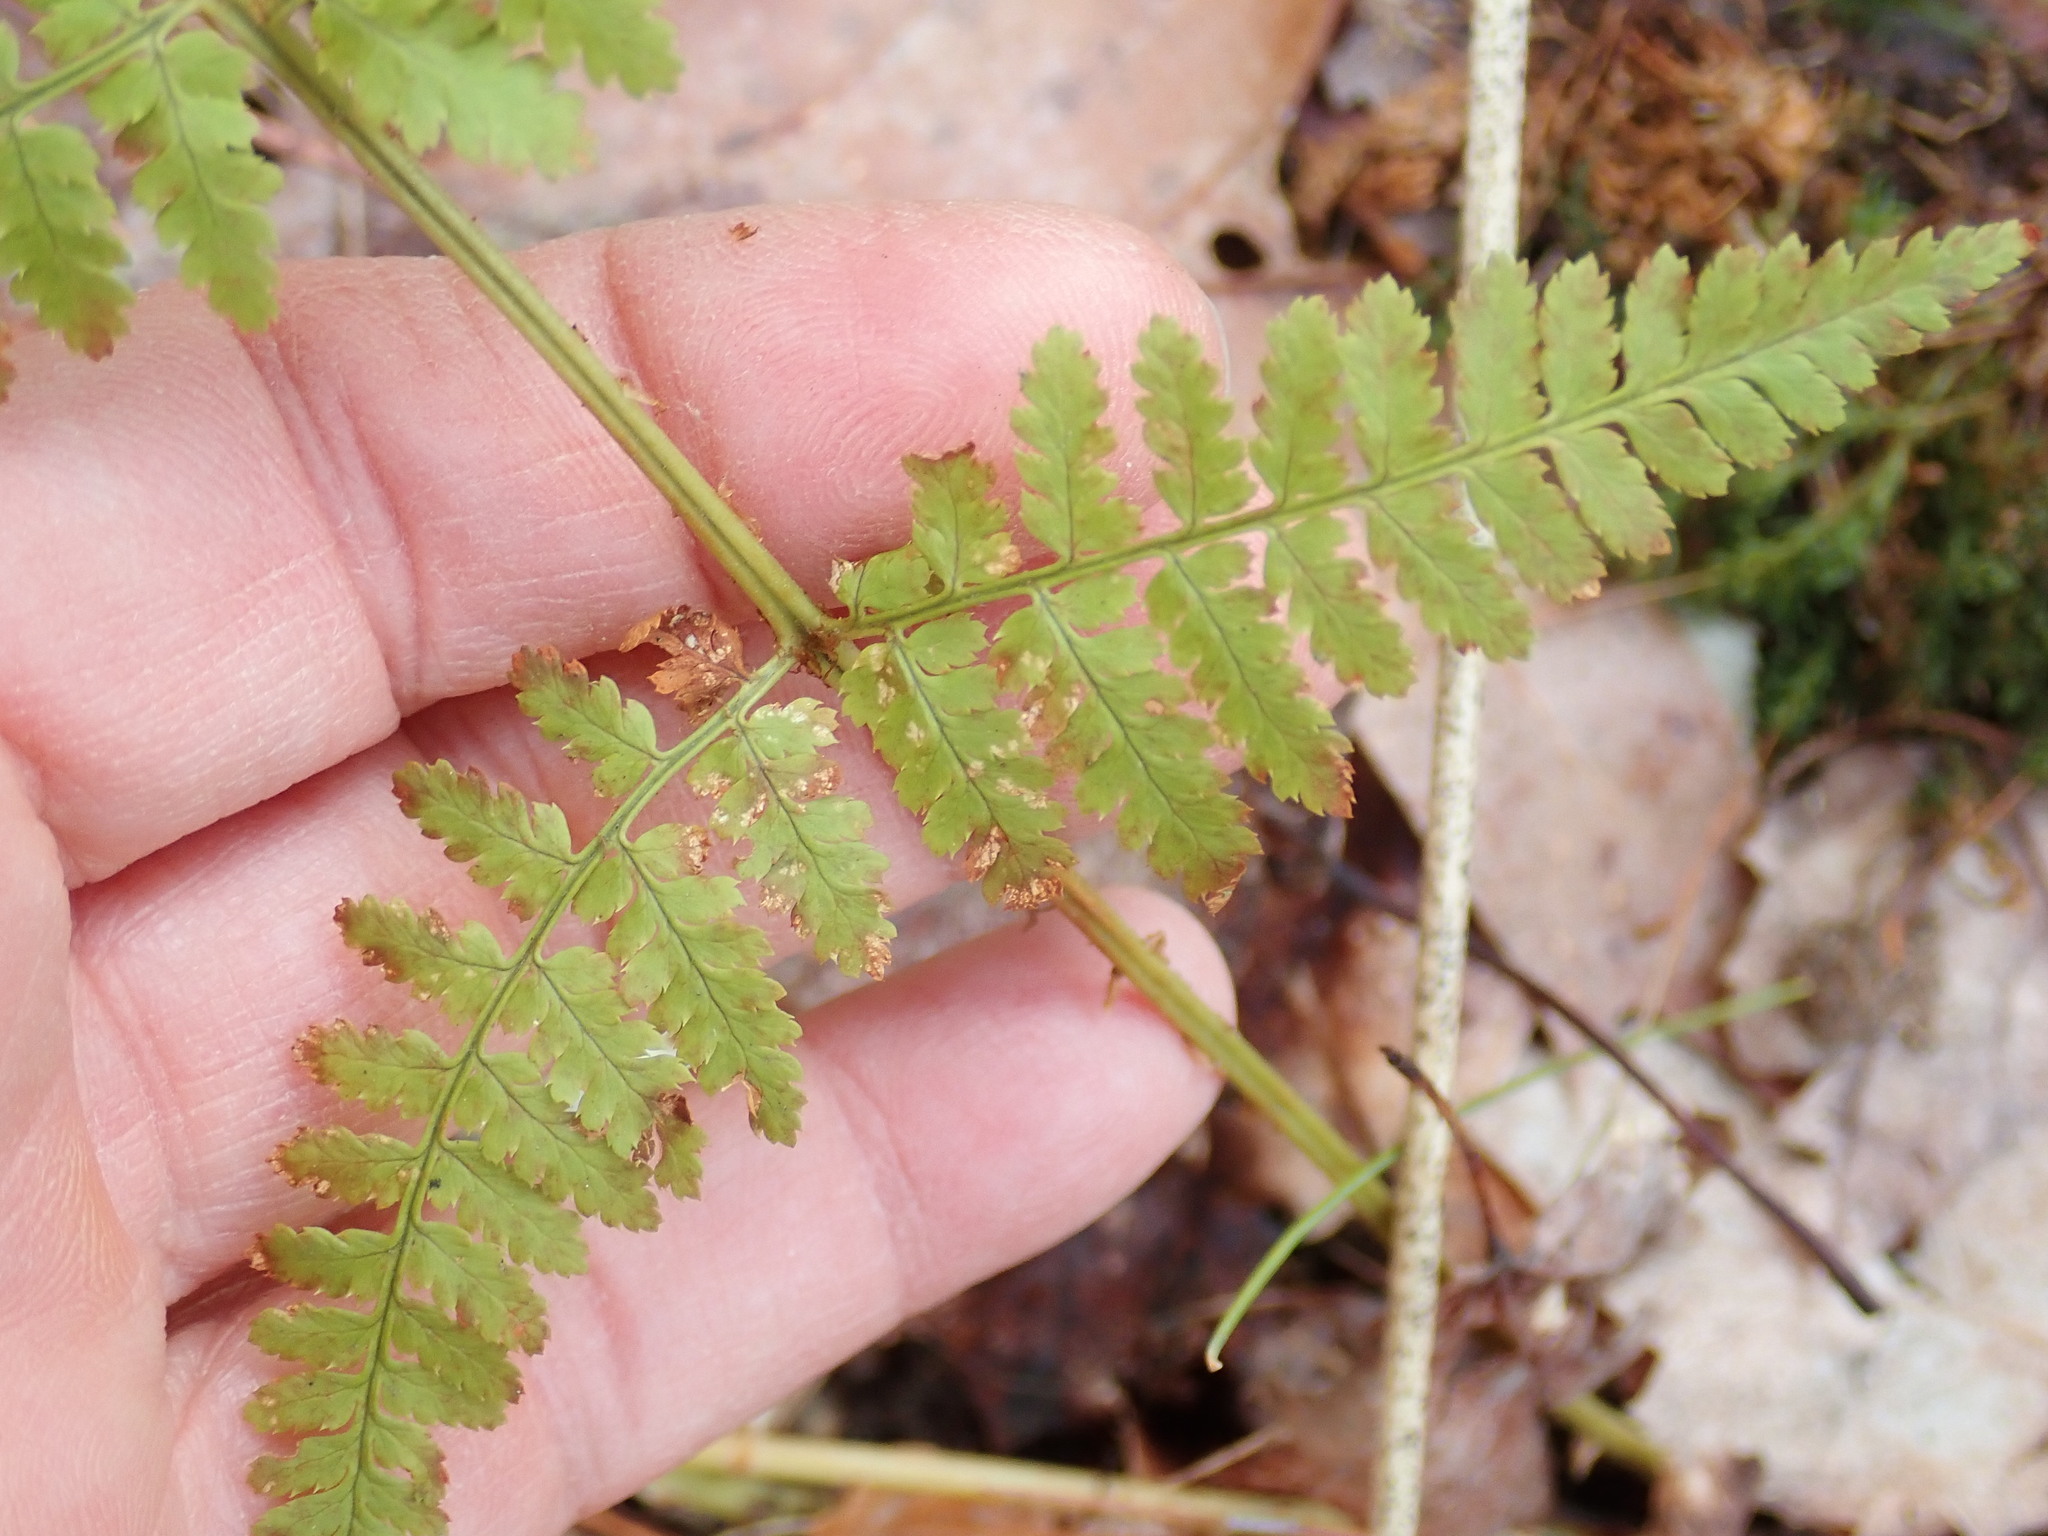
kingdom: Plantae
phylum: Tracheophyta
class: Polypodiopsida
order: Polypodiales
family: Dryopteridaceae
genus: Dryopteris
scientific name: Dryopteris intermedia
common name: Evergreen wood fern
